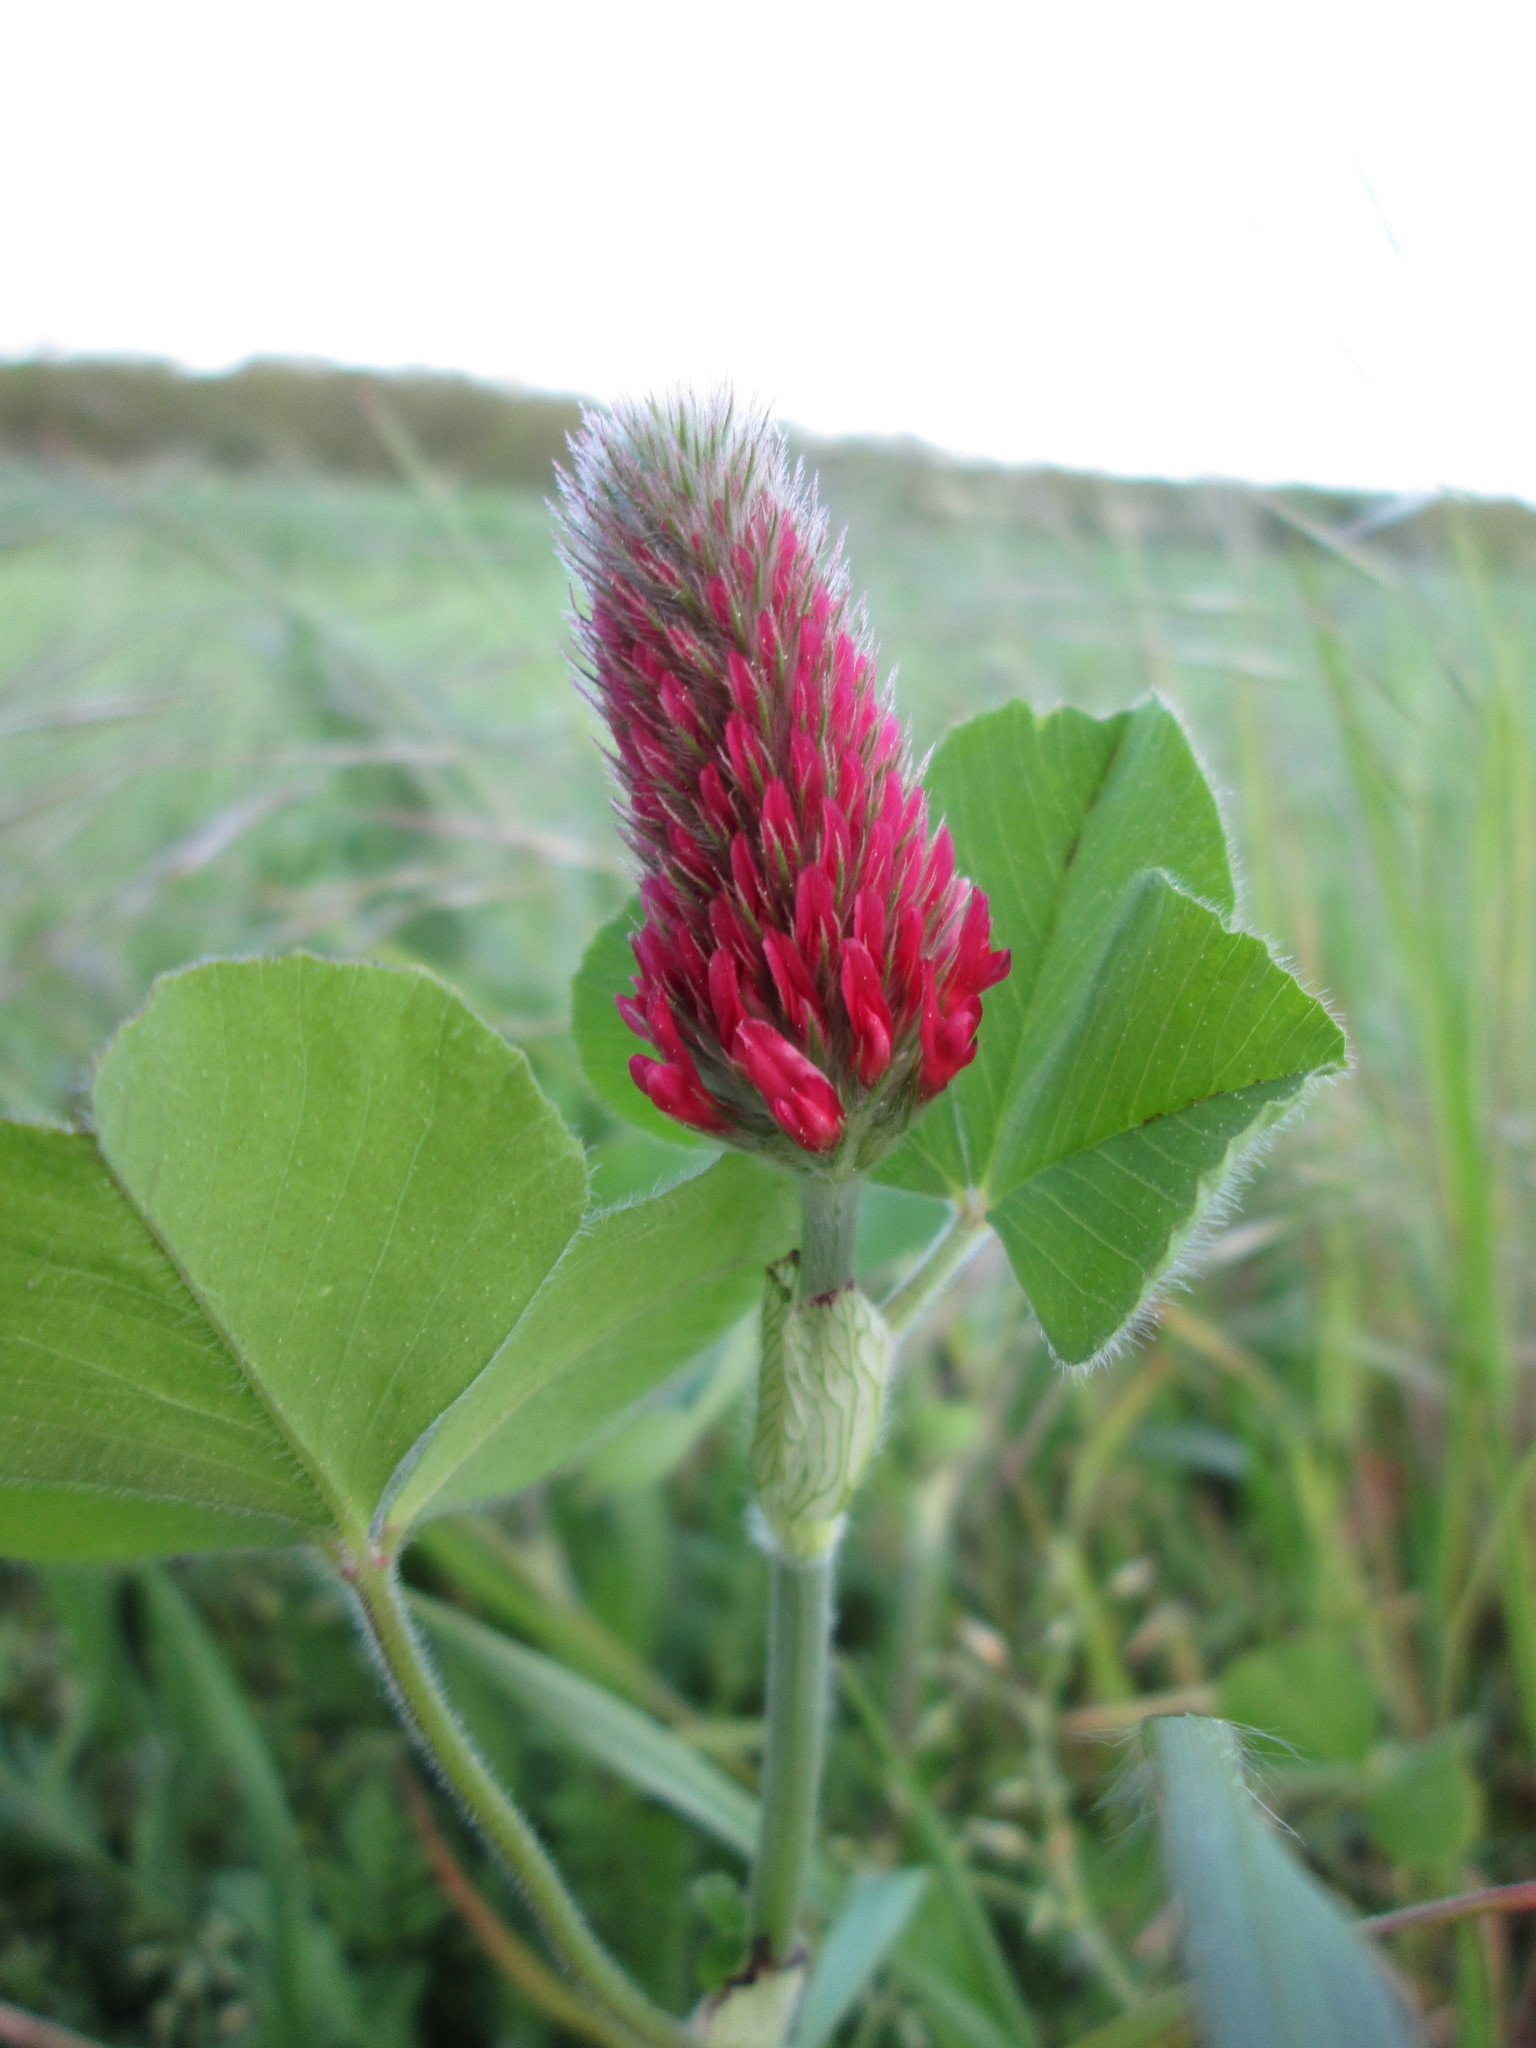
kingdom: Plantae
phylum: Tracheophyta
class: Magnoliopsida
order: Fabales
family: Fabaceae
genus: Trifolium
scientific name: Trifolium incarnatum
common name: Crimson clover
